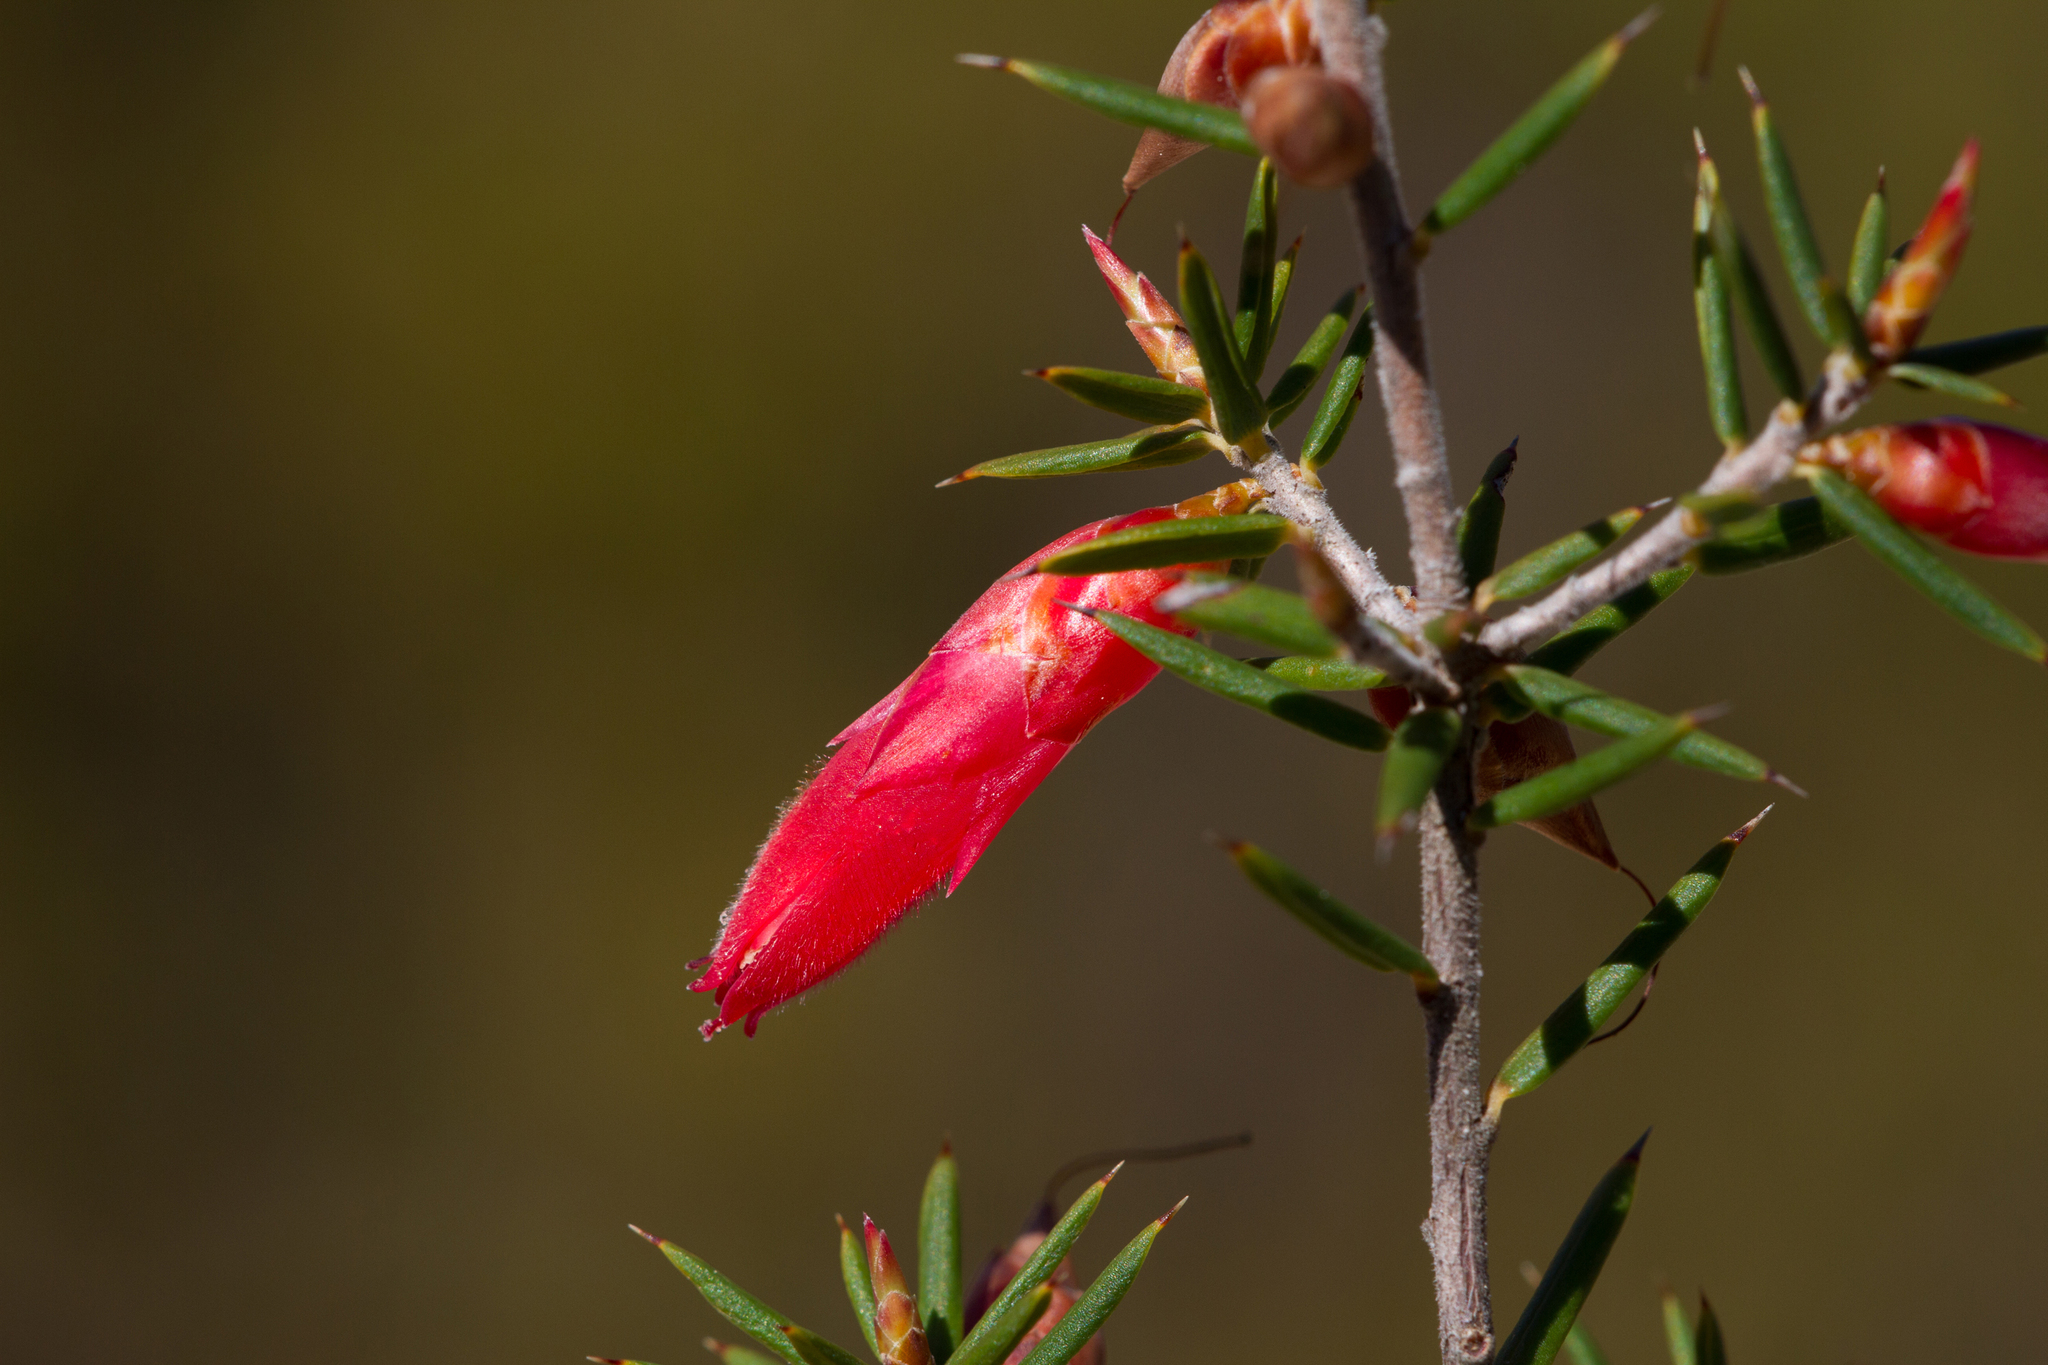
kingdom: Plantae
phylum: Tracheophyta
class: Magnoliopsida
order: Ericales
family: Ericaceae
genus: Stenanthera
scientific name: Stenanthera conostephioides
